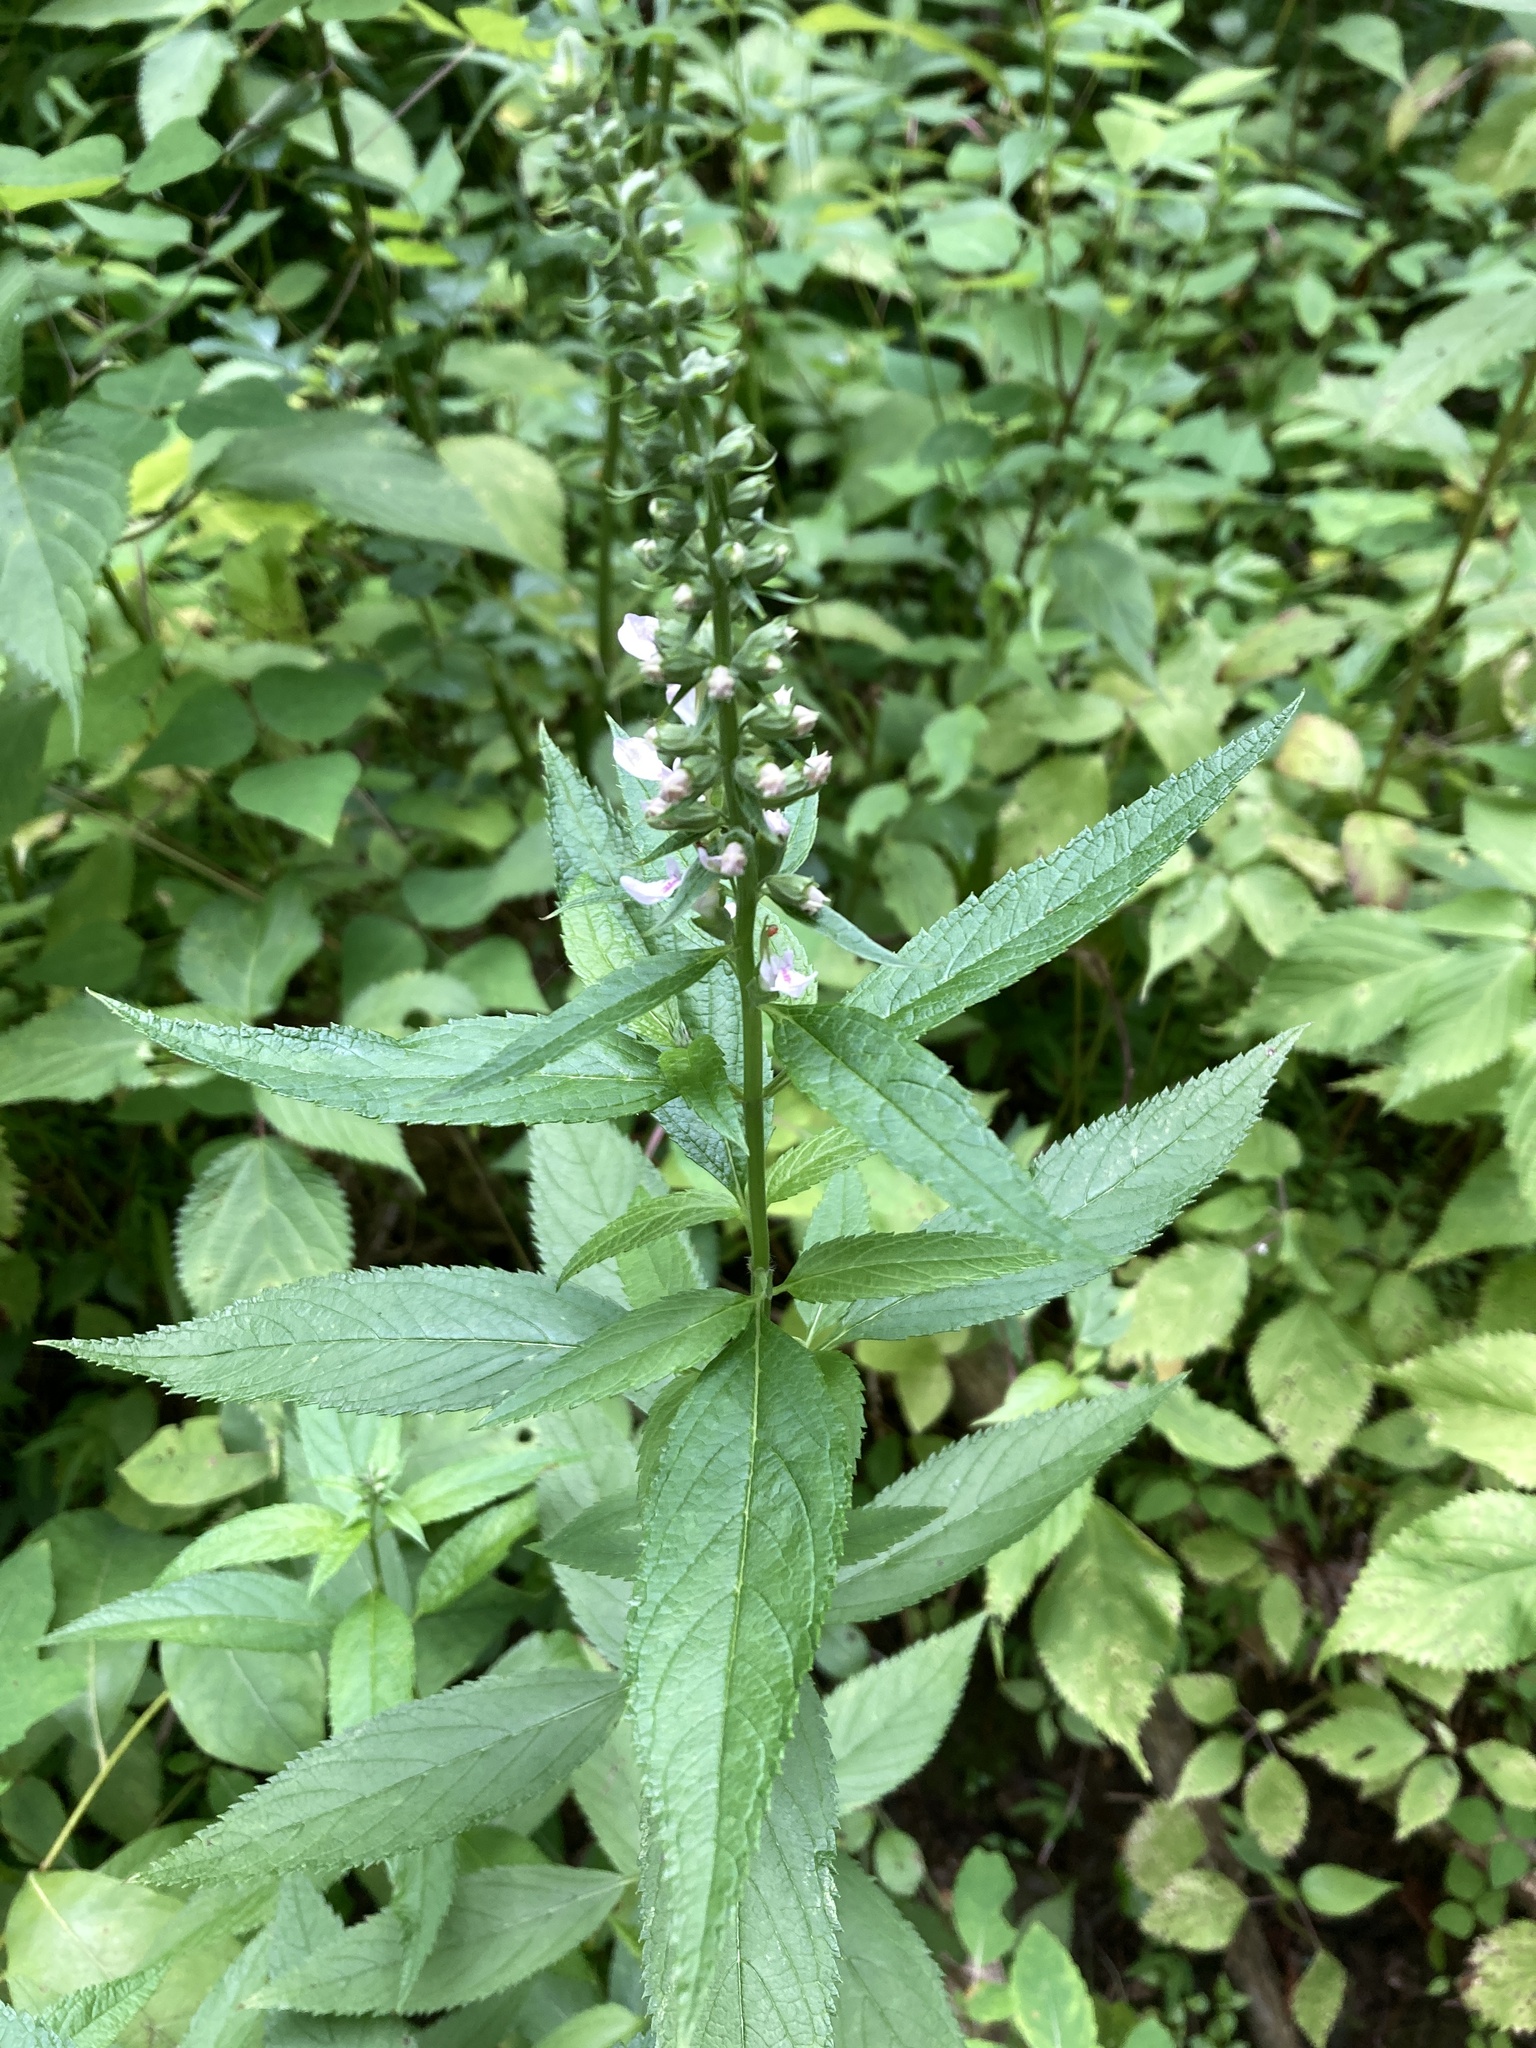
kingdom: Plantae
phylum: Tracheophyta
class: Magnoliopsida
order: Lamiales
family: Lamiaceae
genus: Teucrium
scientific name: Teucrium canadense
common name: American germander
